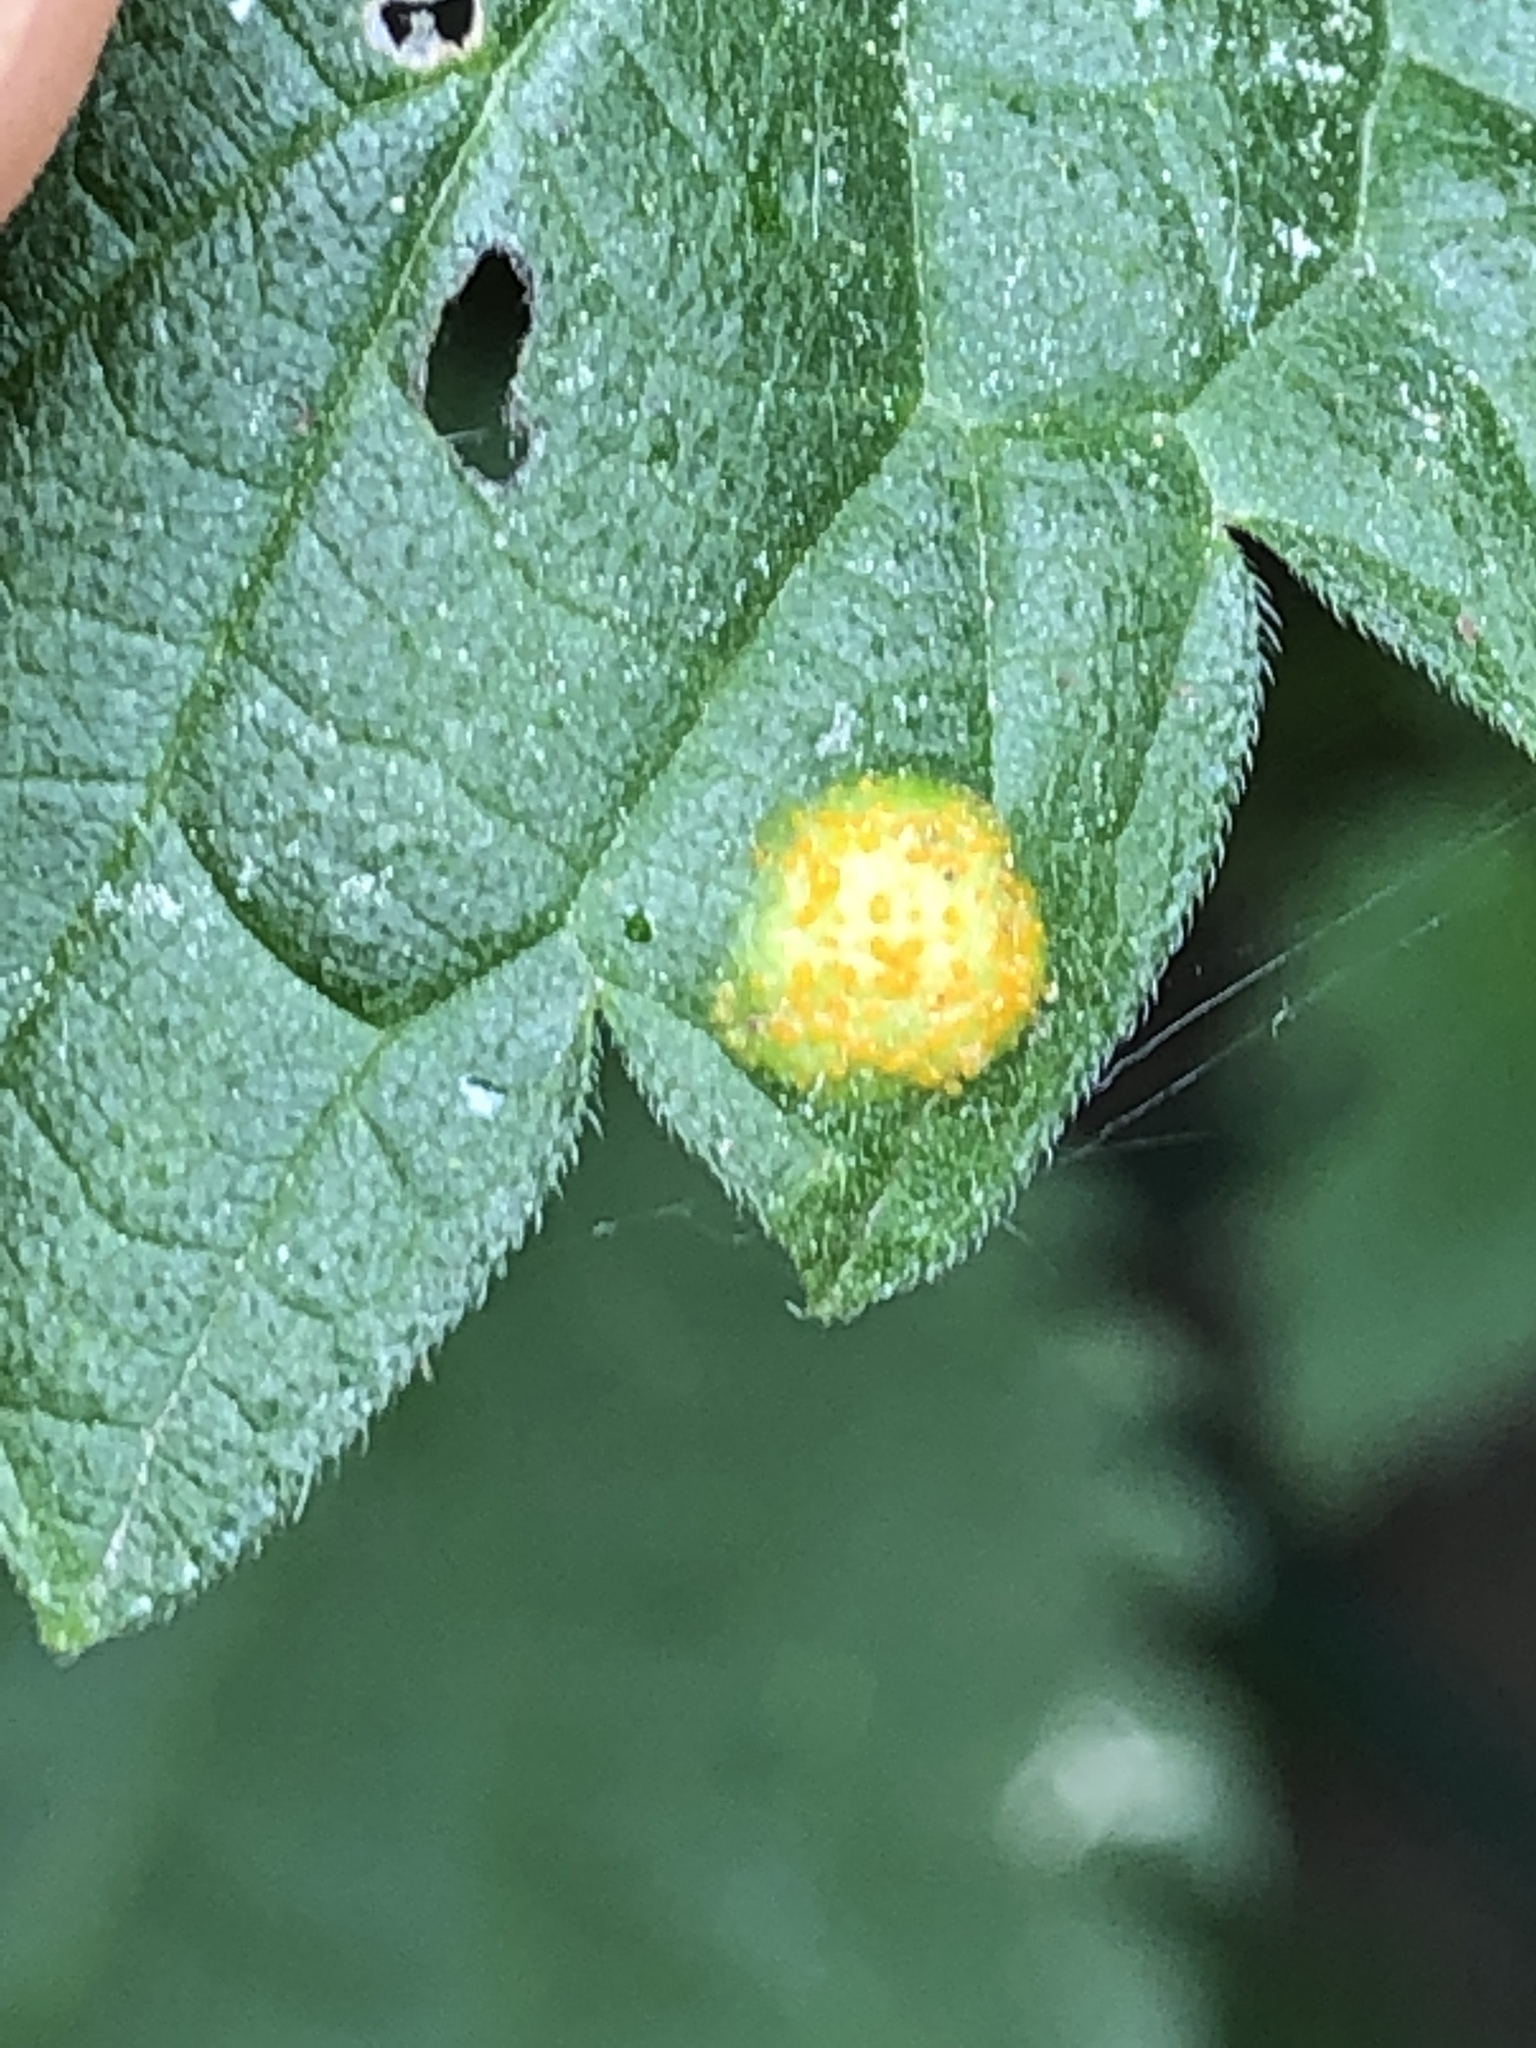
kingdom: Fungi
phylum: Basidiomycota
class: Pucciniomycetes
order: Pucciniales
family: Pucciniaceae
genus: Puccinia
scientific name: Puccinia urticata
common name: Nettle clustercup rust fungus
